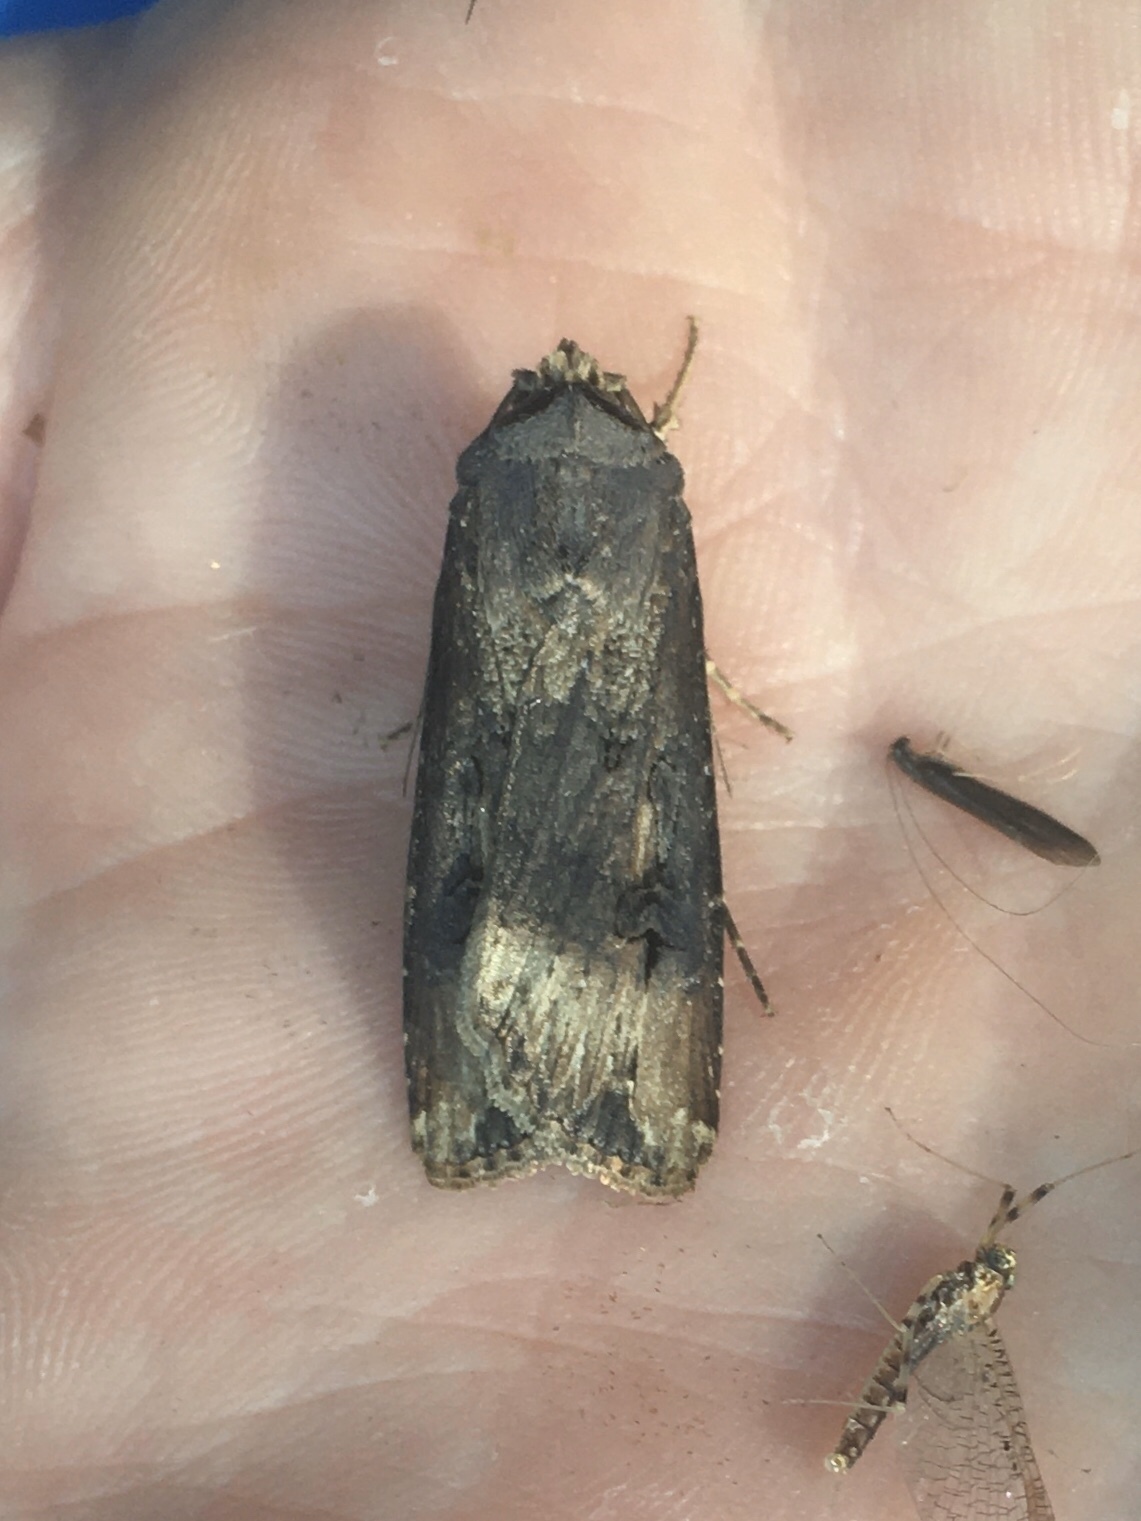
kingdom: Animalia
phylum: Arthropoda
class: Insecta
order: Lepidoptera
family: Noctuidae
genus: Agrotis
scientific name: Agrotis ipsilon
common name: Dark sword-grass
